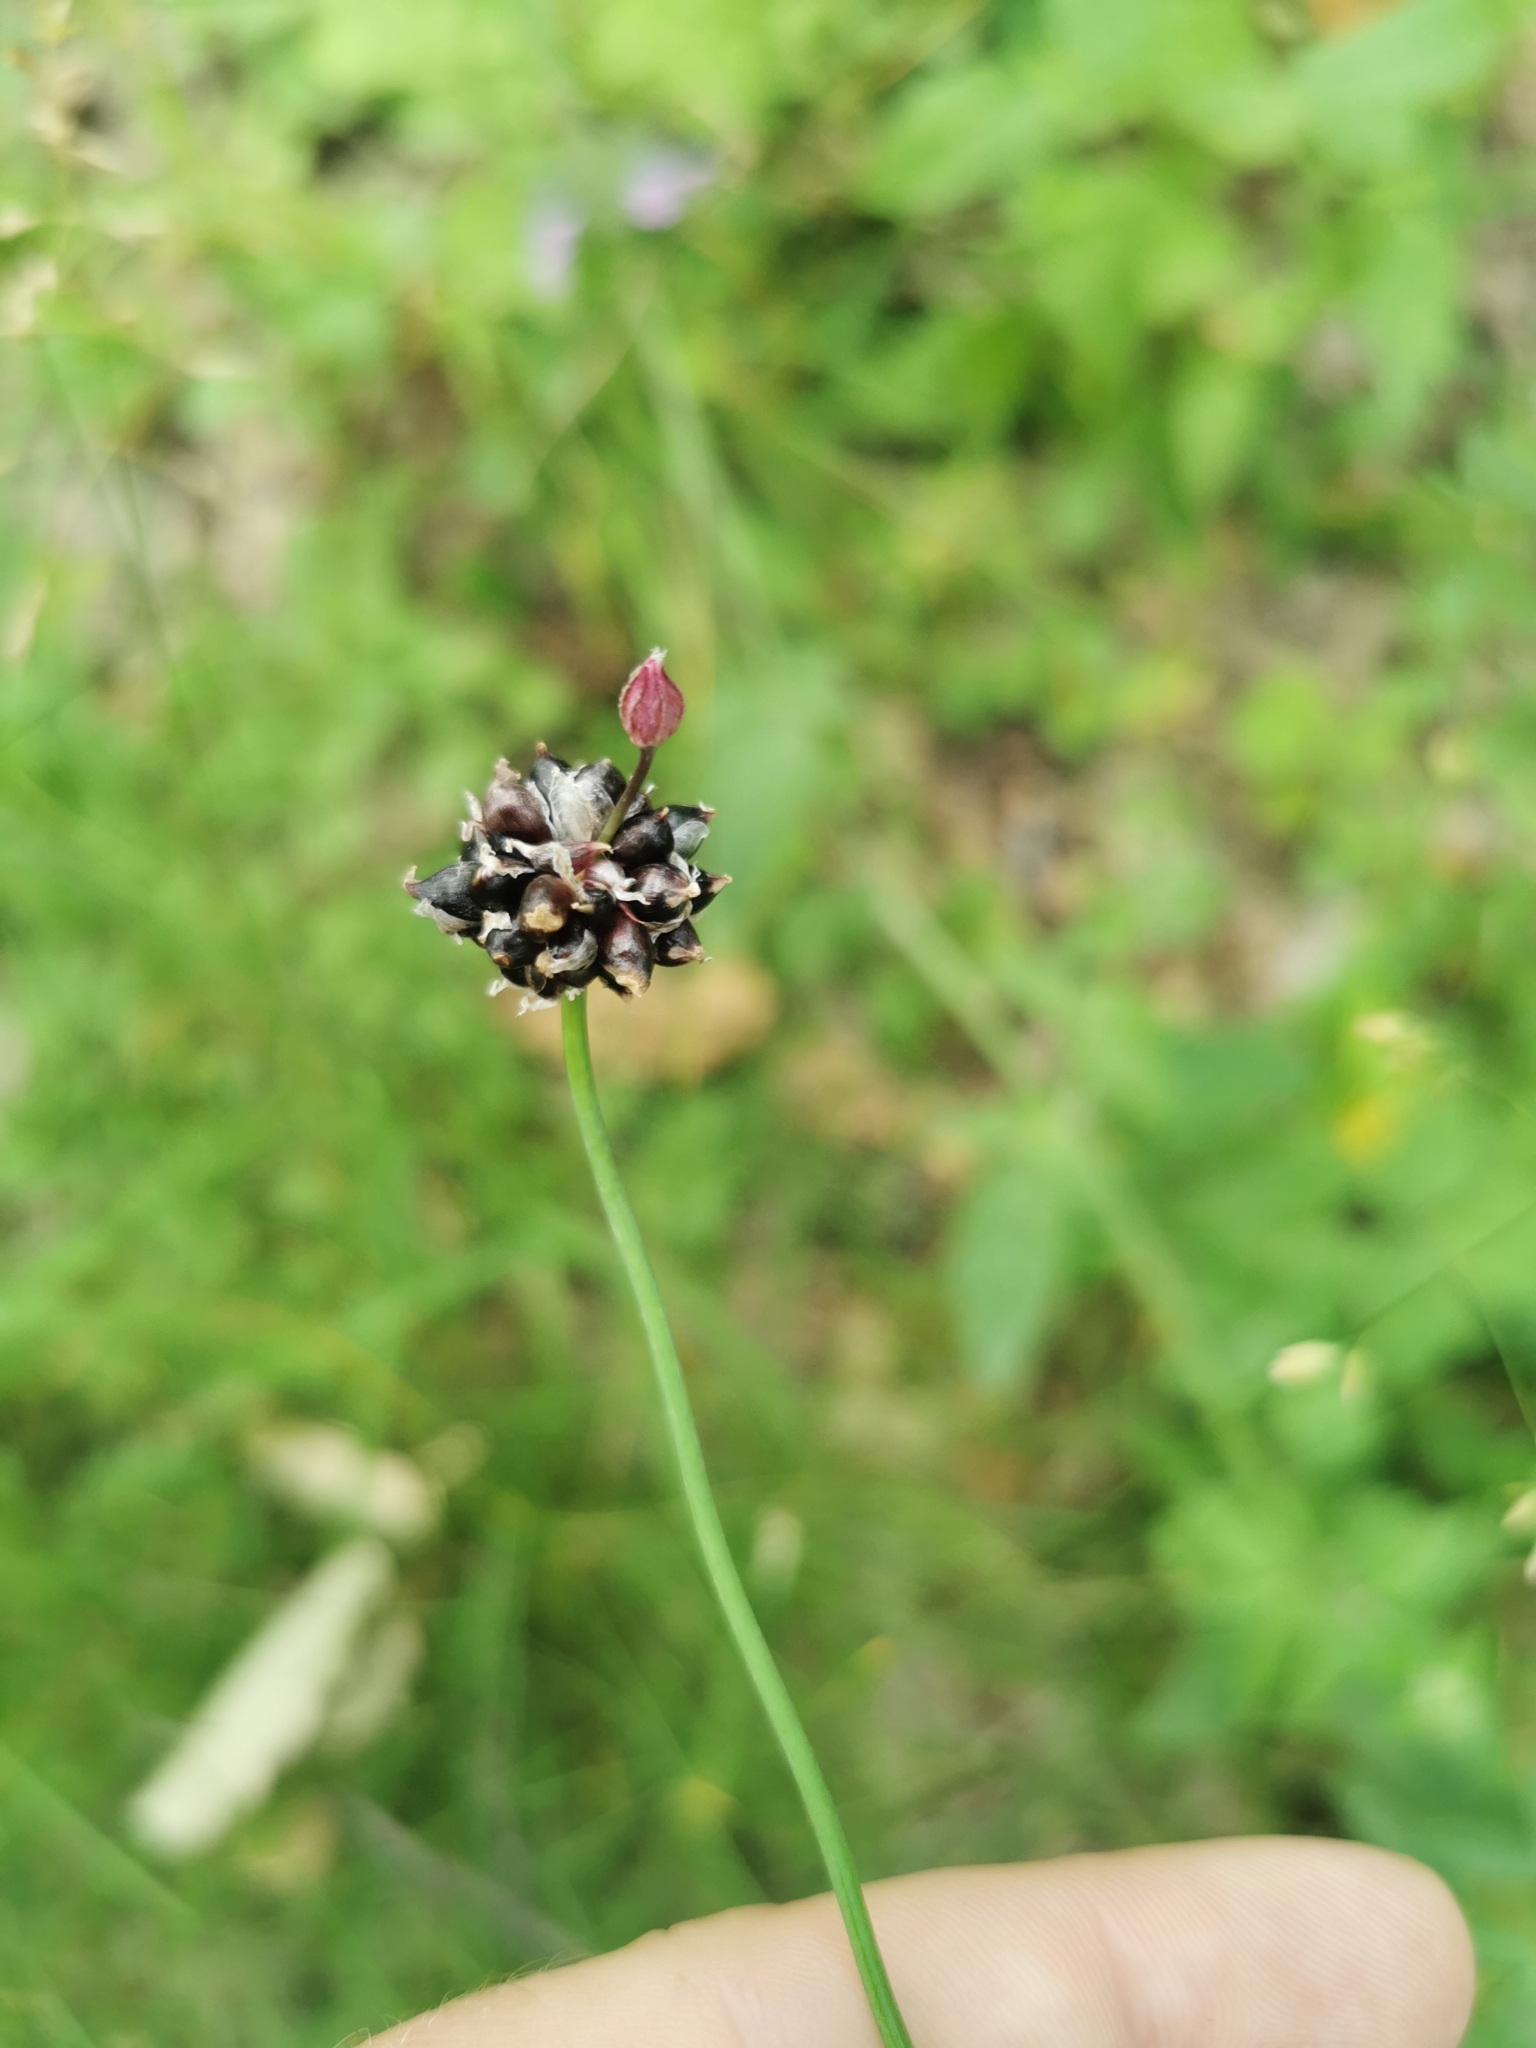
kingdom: Plantae
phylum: Tracheophyta
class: Liliopsida
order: Asparagales
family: Amaryllidaceae
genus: Allium
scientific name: Allium scorodoprasum
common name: Sand leek
